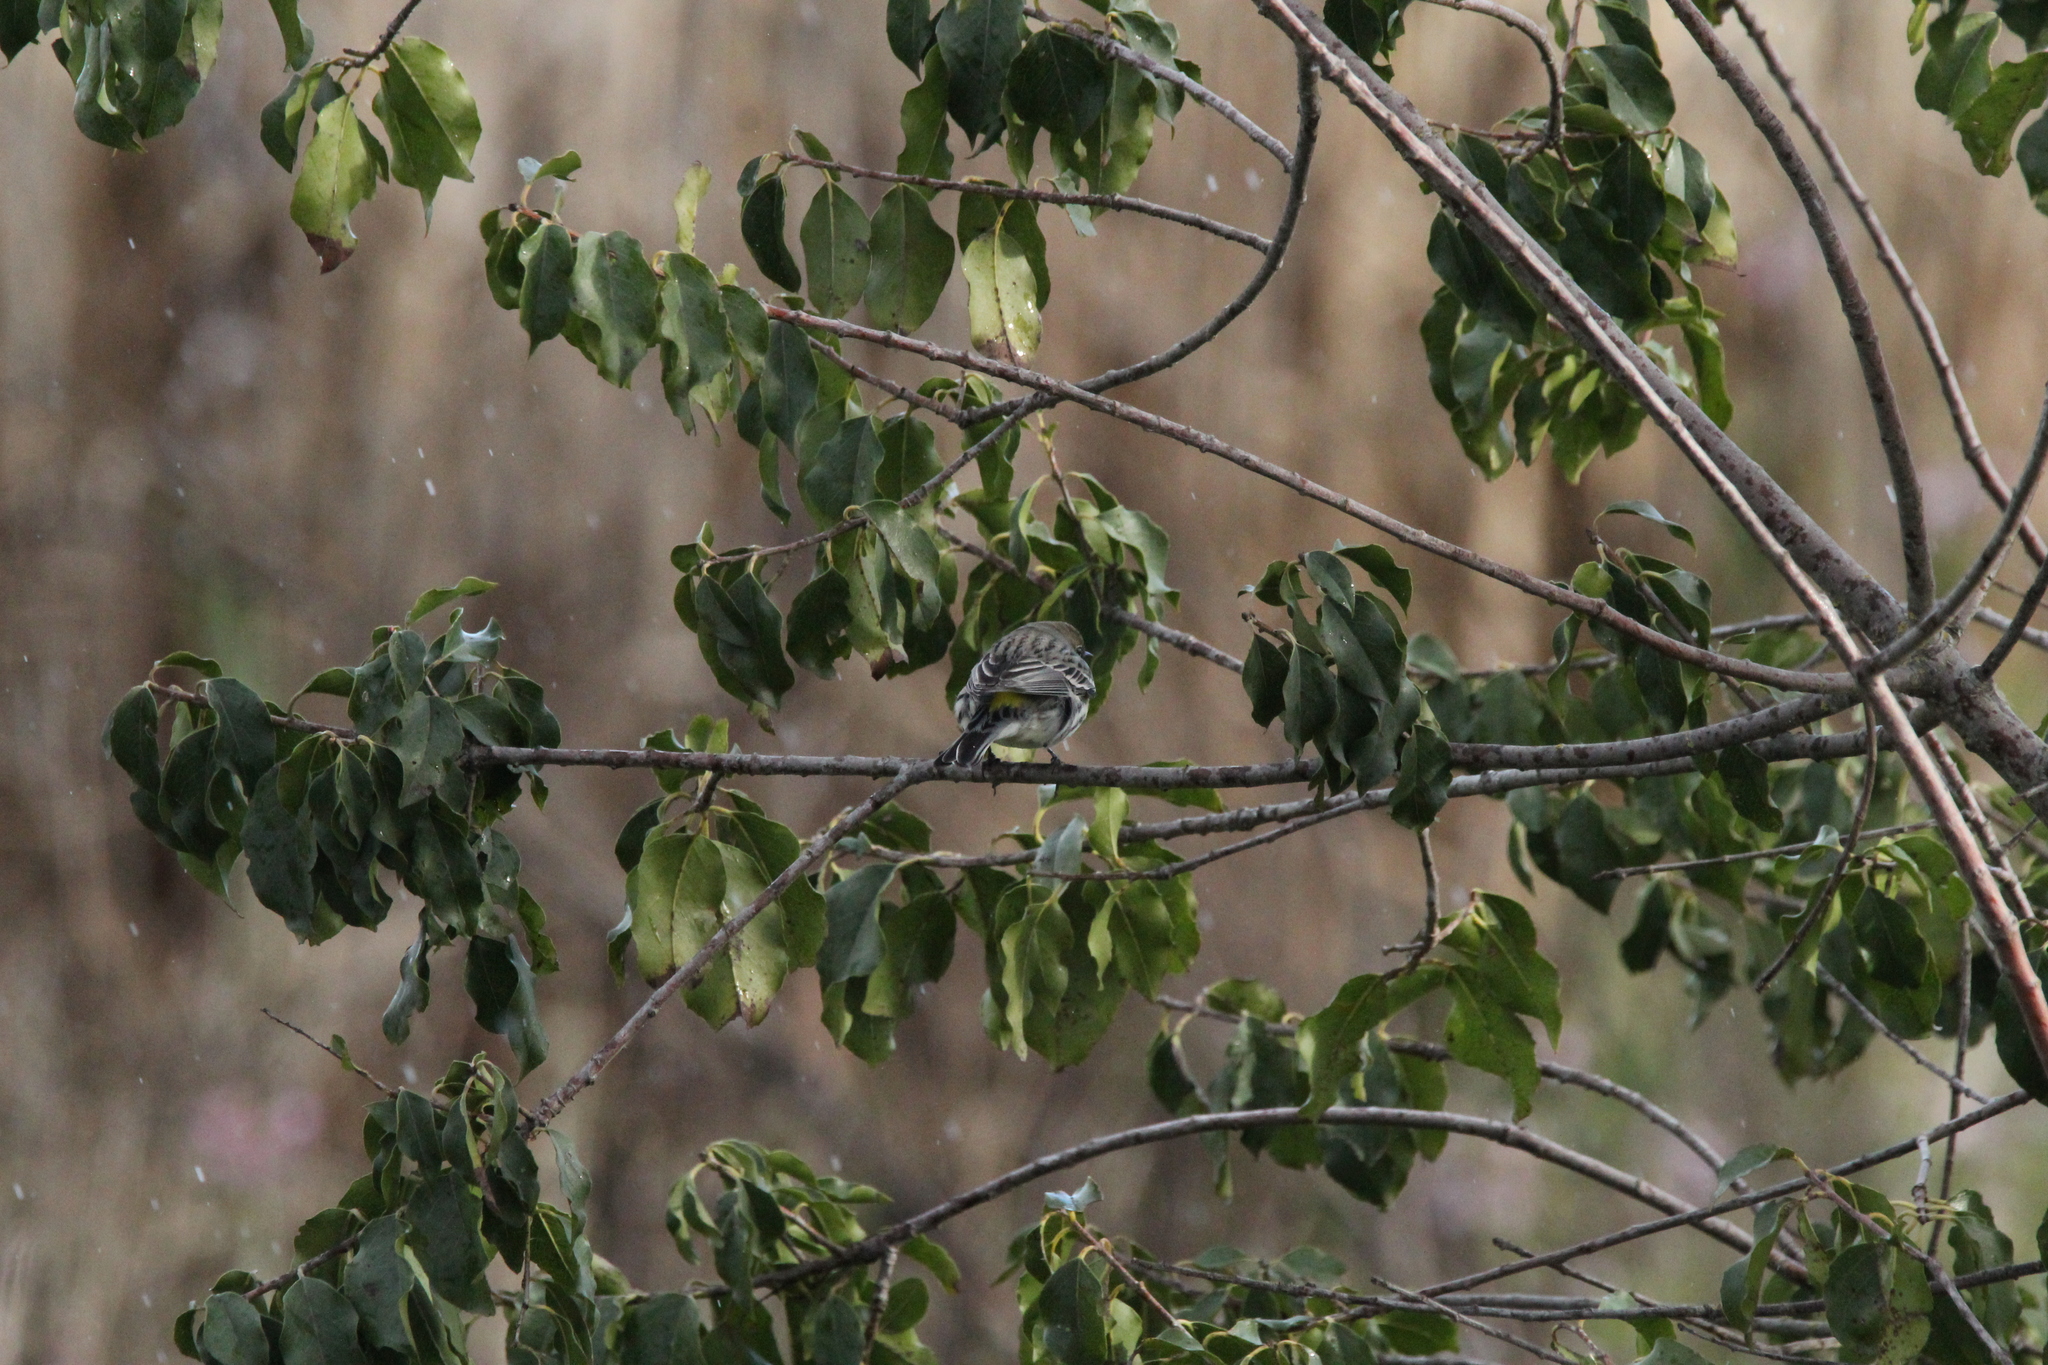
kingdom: Animalia
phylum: Chordata
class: Aves
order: Passeriformes
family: Parulidae
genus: Setophaga
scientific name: Setophaga coronata
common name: Myrtle warbler
